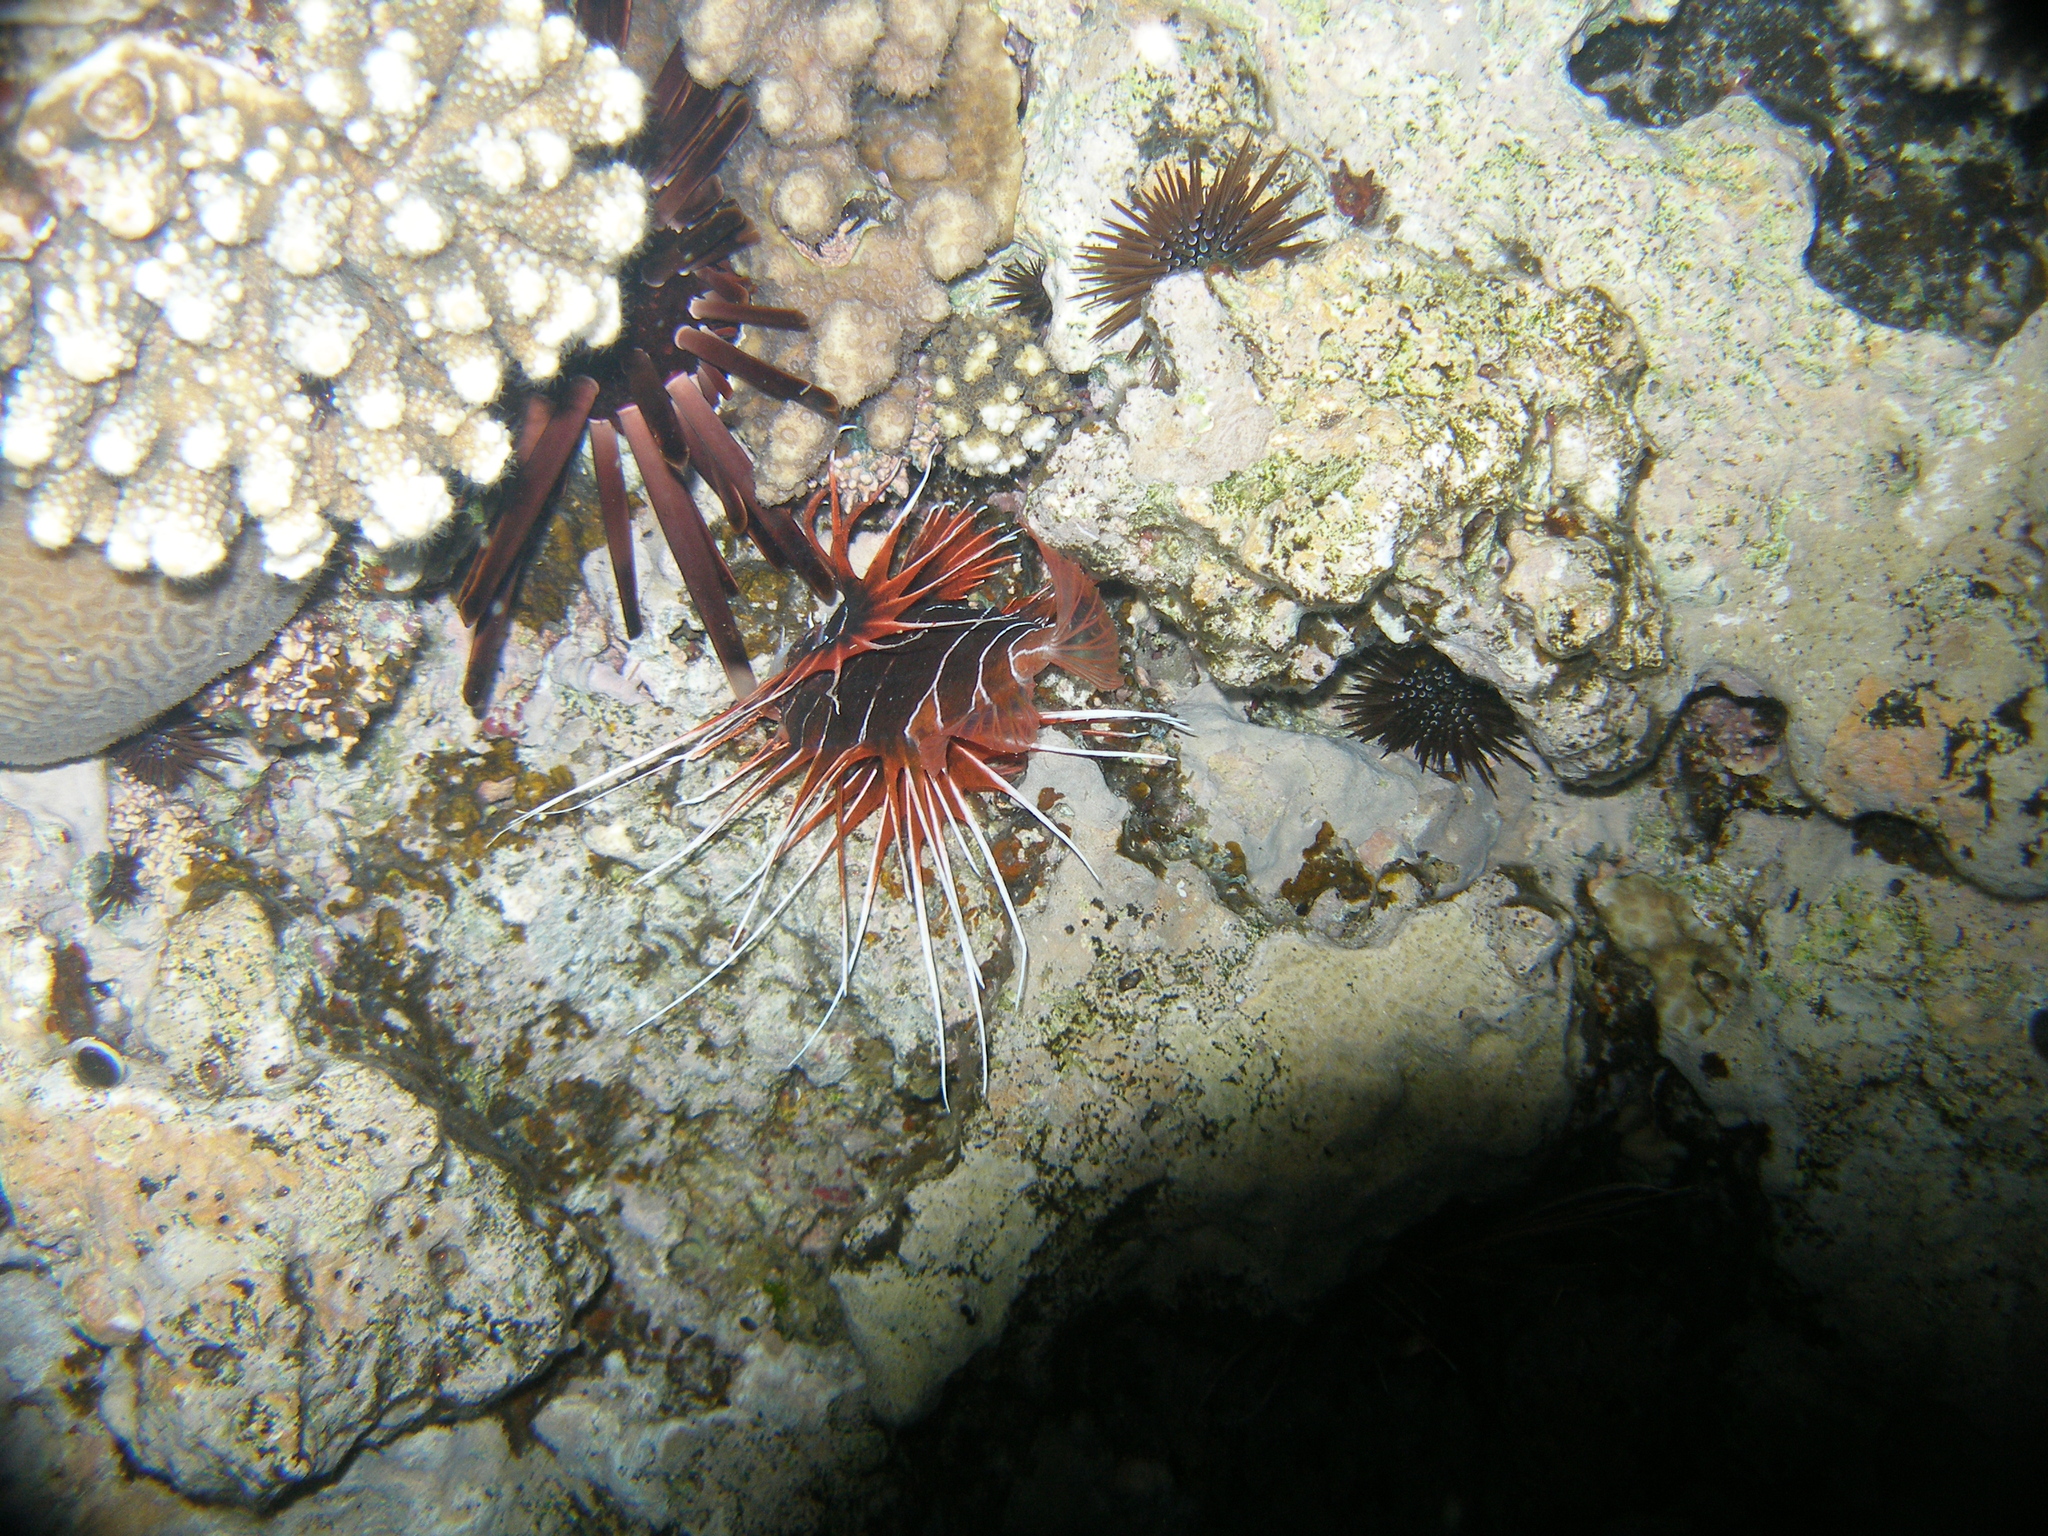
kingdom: Animalia
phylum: Chordata
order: Scorpaeniformes
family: Scorpaenidae
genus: Pterois
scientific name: Pterois cincta
